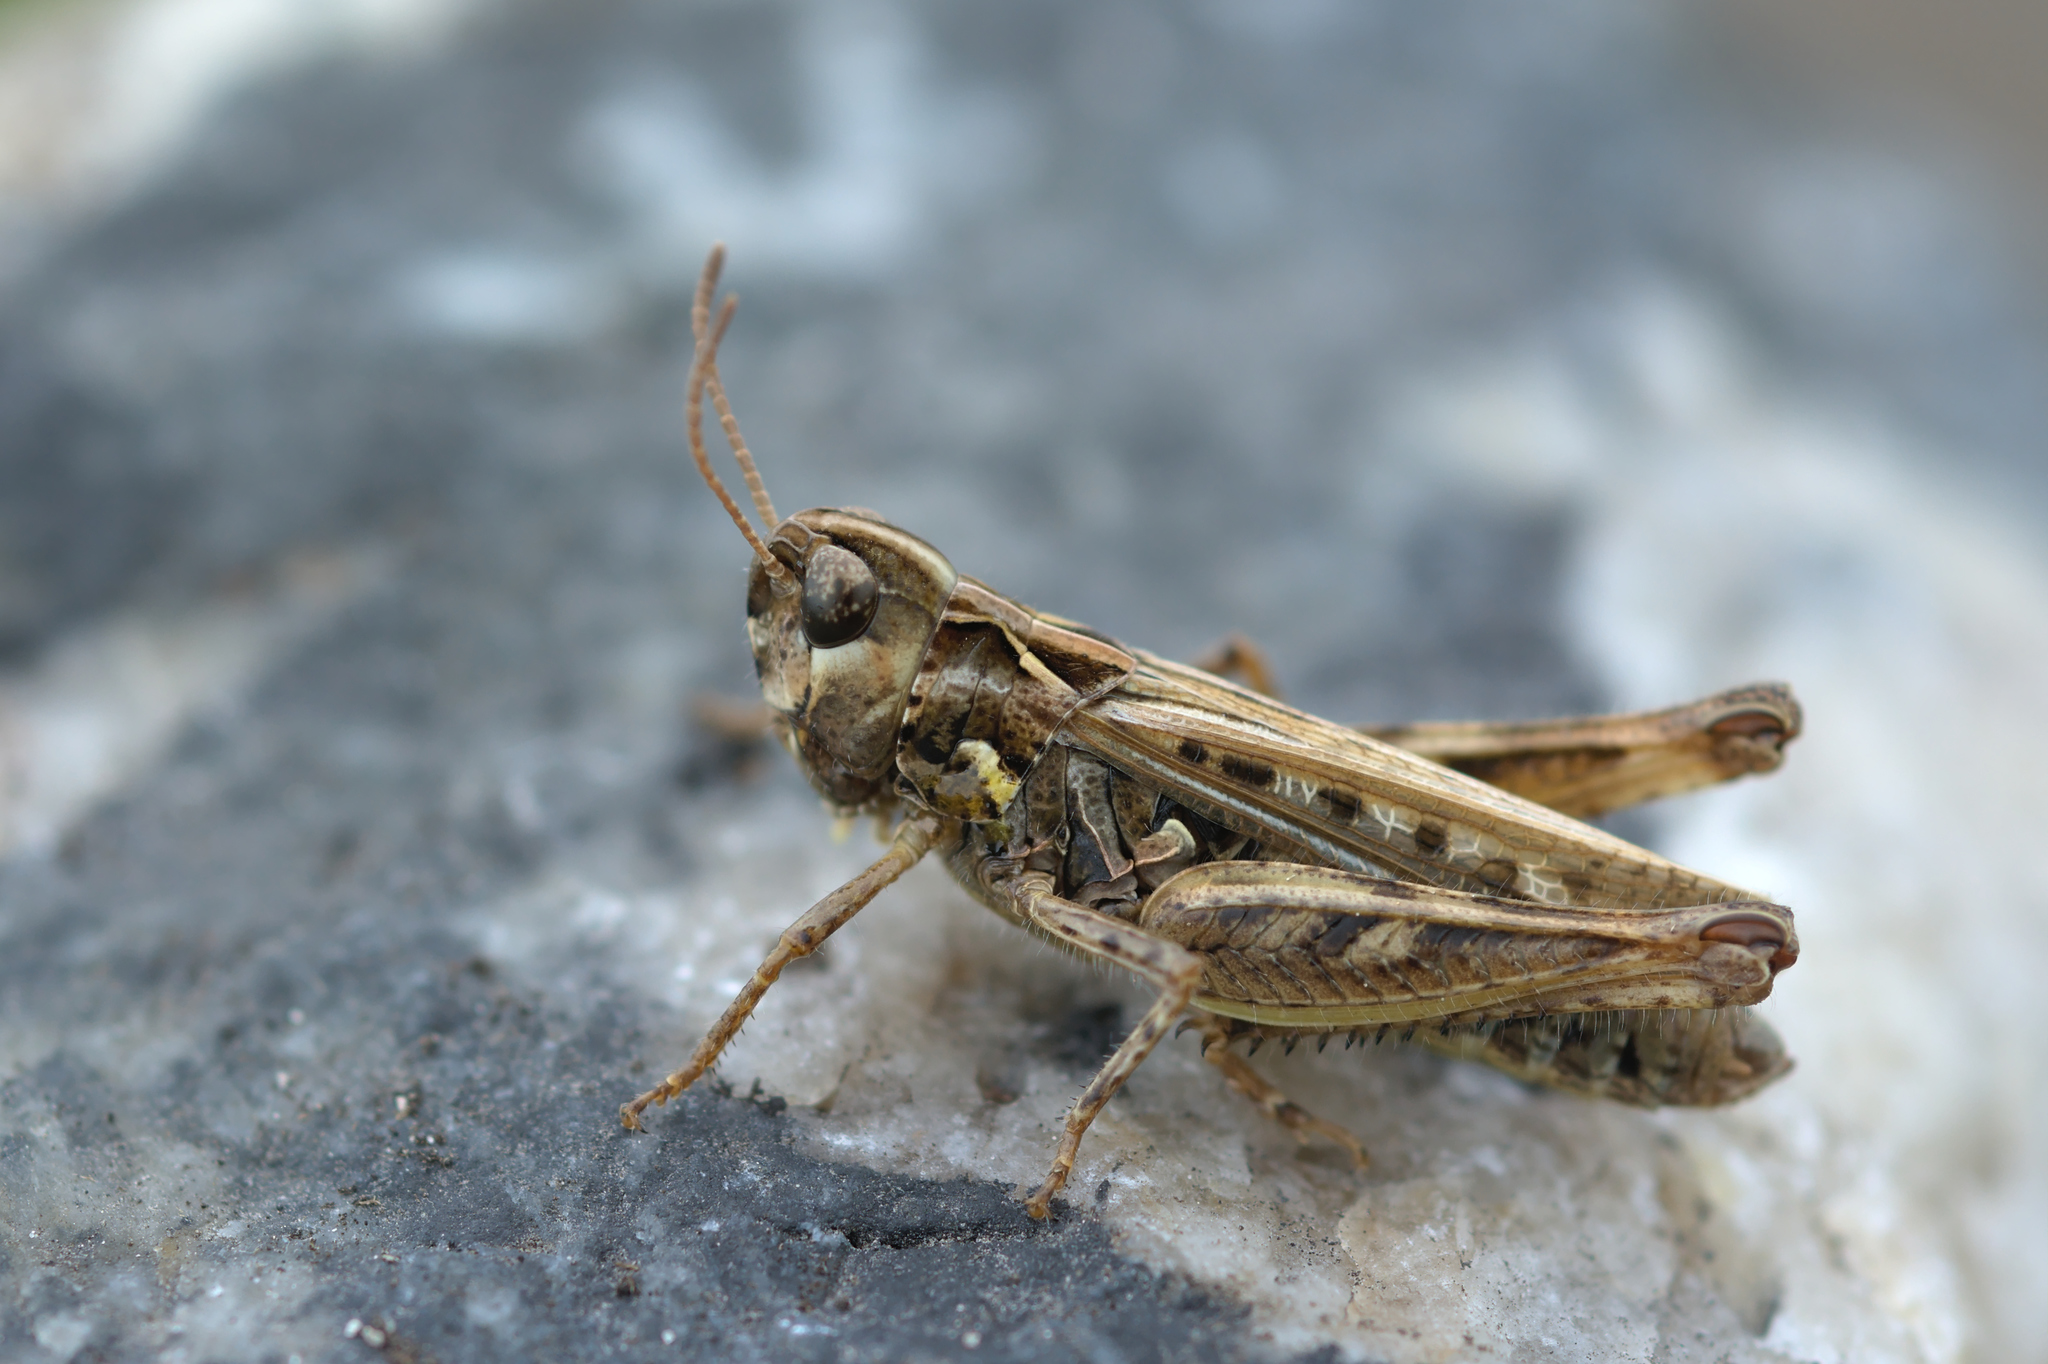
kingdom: Animalia
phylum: Arthropoda
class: Insecta
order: Orthoptera
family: Acrididae
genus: Myrmeleotettix
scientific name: Myrmeleotettix maculatus
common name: Mottled grasshopper
